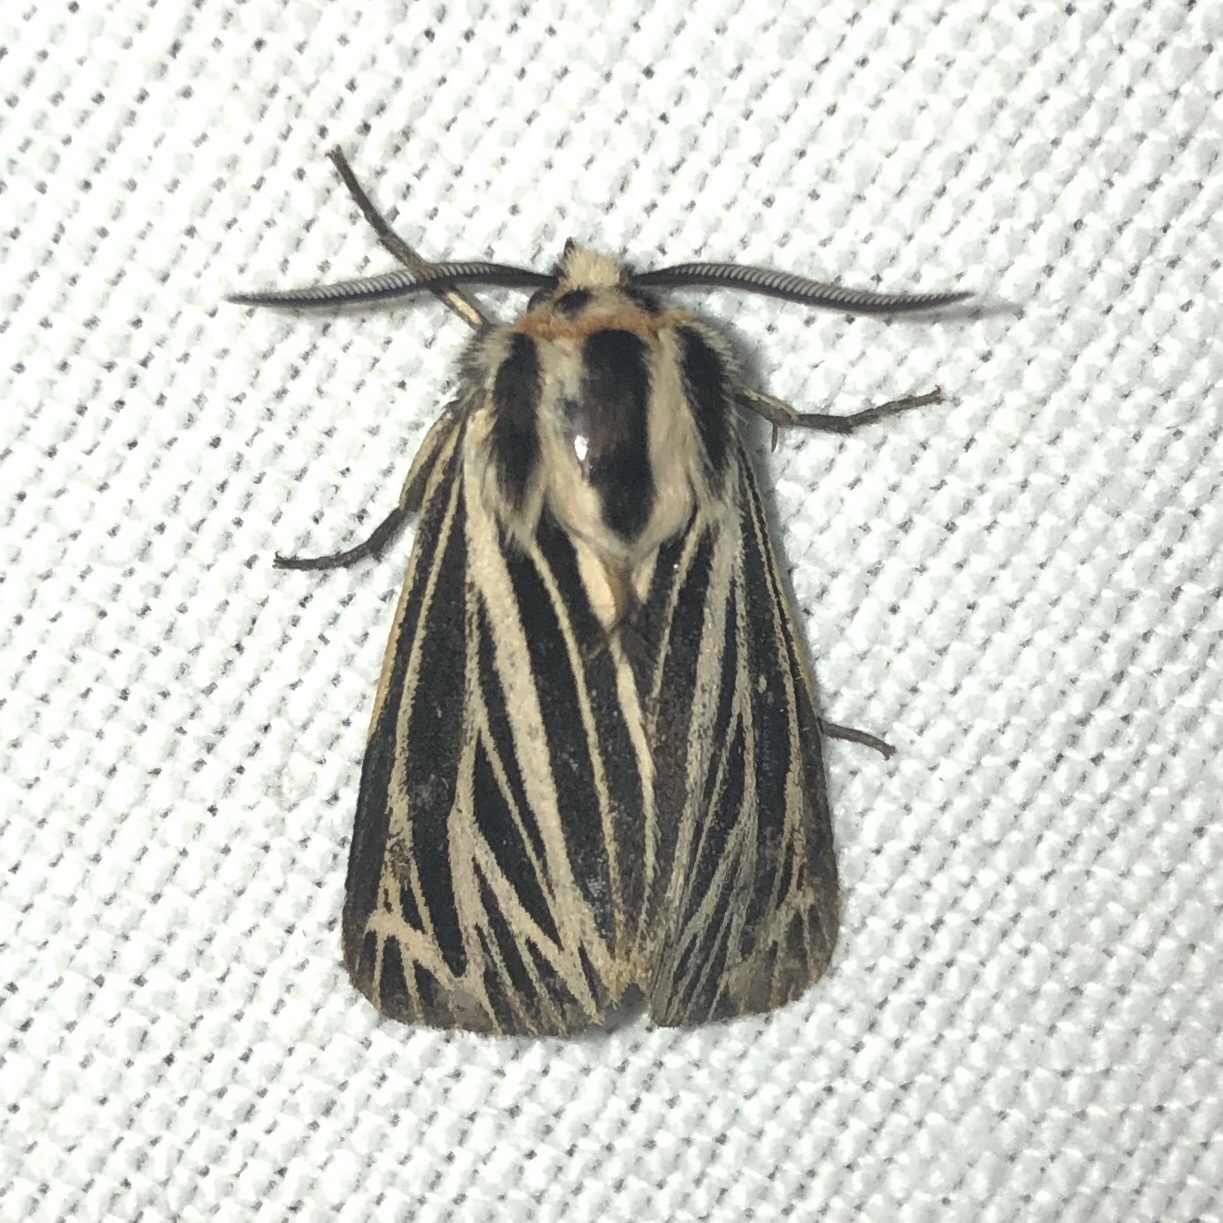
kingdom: Animalia
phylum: Arthropoda
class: Insecta
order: Lepidoptera
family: Erebidae
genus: Grammia
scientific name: Grammia virguncula
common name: Little tiger moth
